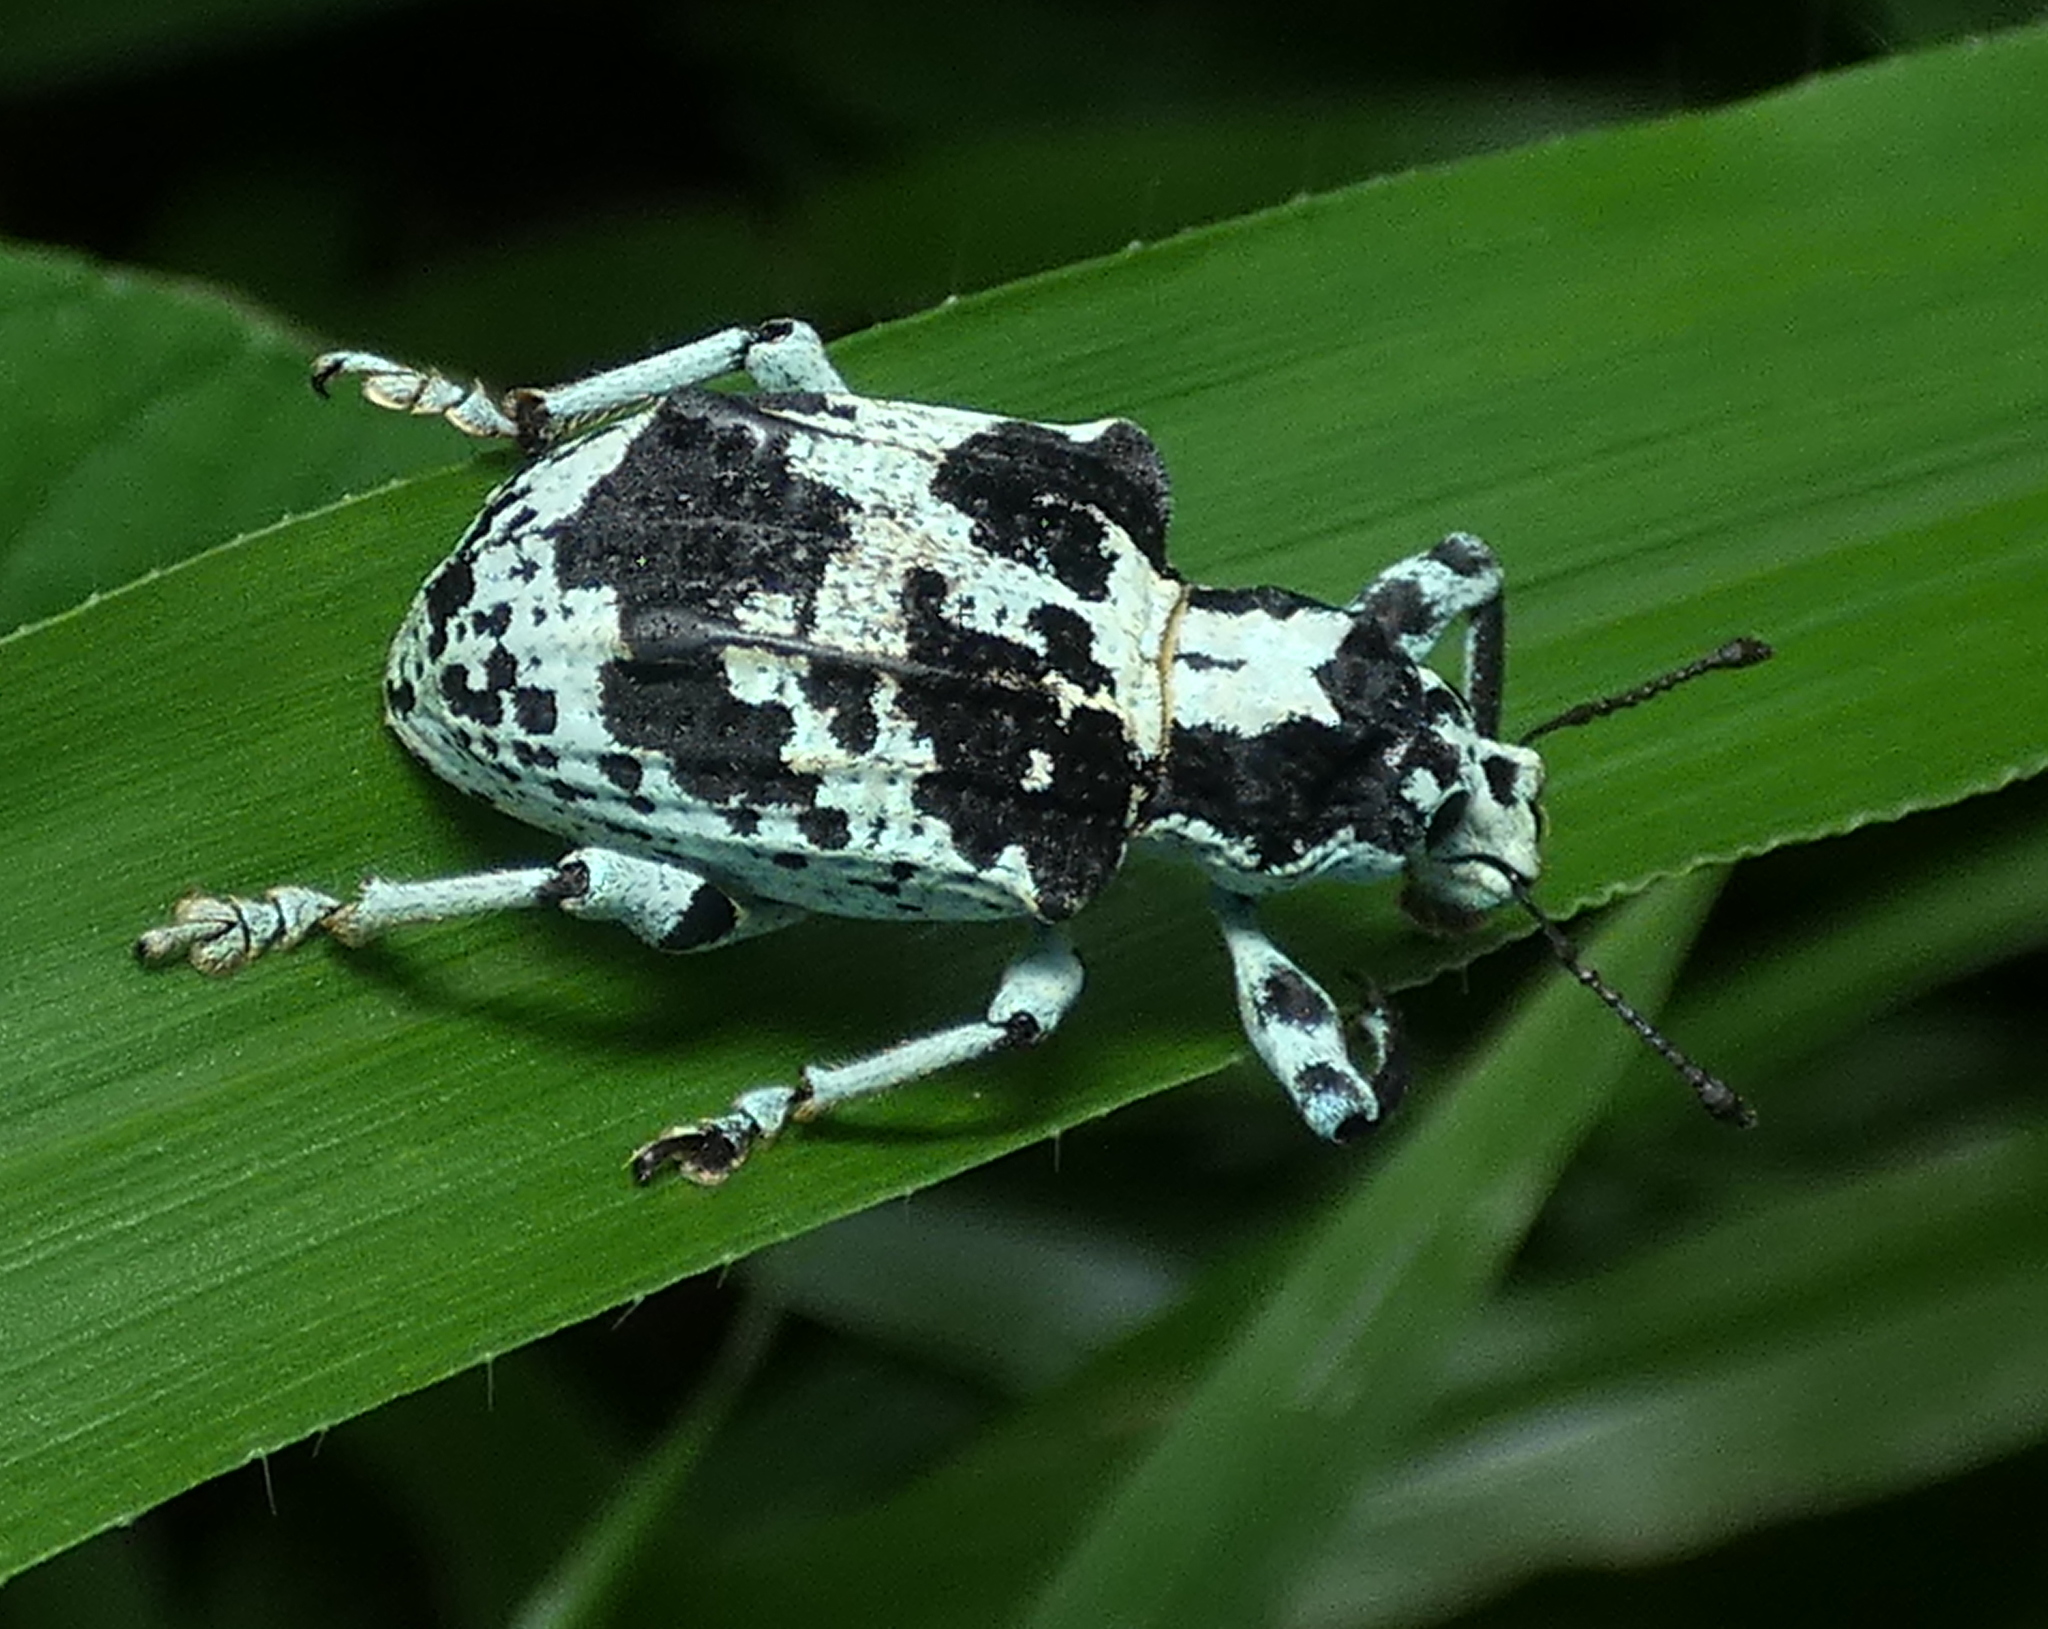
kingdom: Animalia
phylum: Arthropoda
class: Insecta
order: Coleoptera
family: Curculionidae
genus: Rhigus
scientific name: Rhigus dejeanii
